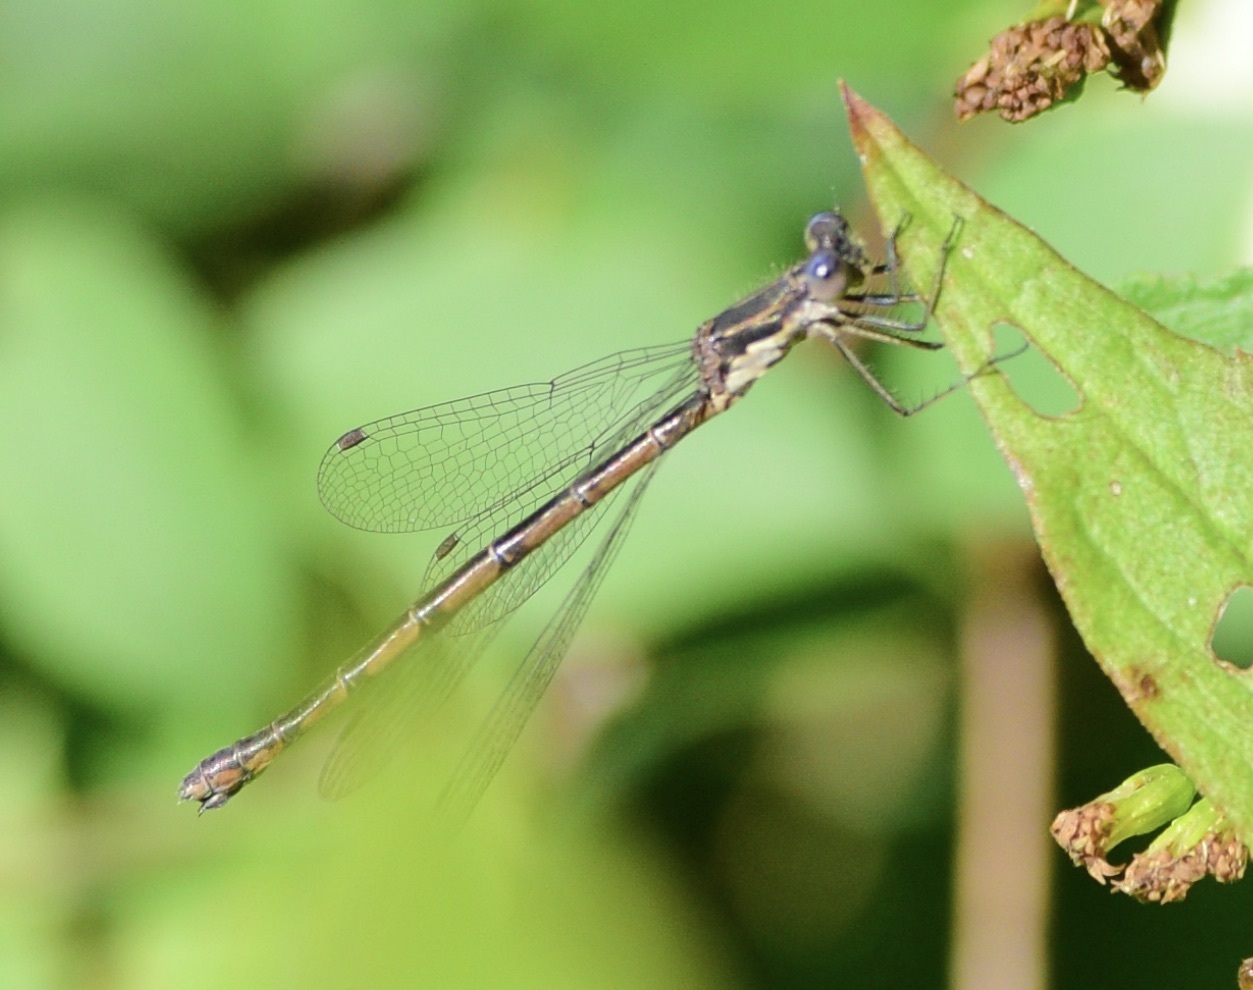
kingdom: Animalia
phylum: Arthropoda
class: Insecta
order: Odonata
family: Lestidae
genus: Lestes
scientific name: Lestes congener
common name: Spotted spreadwing
